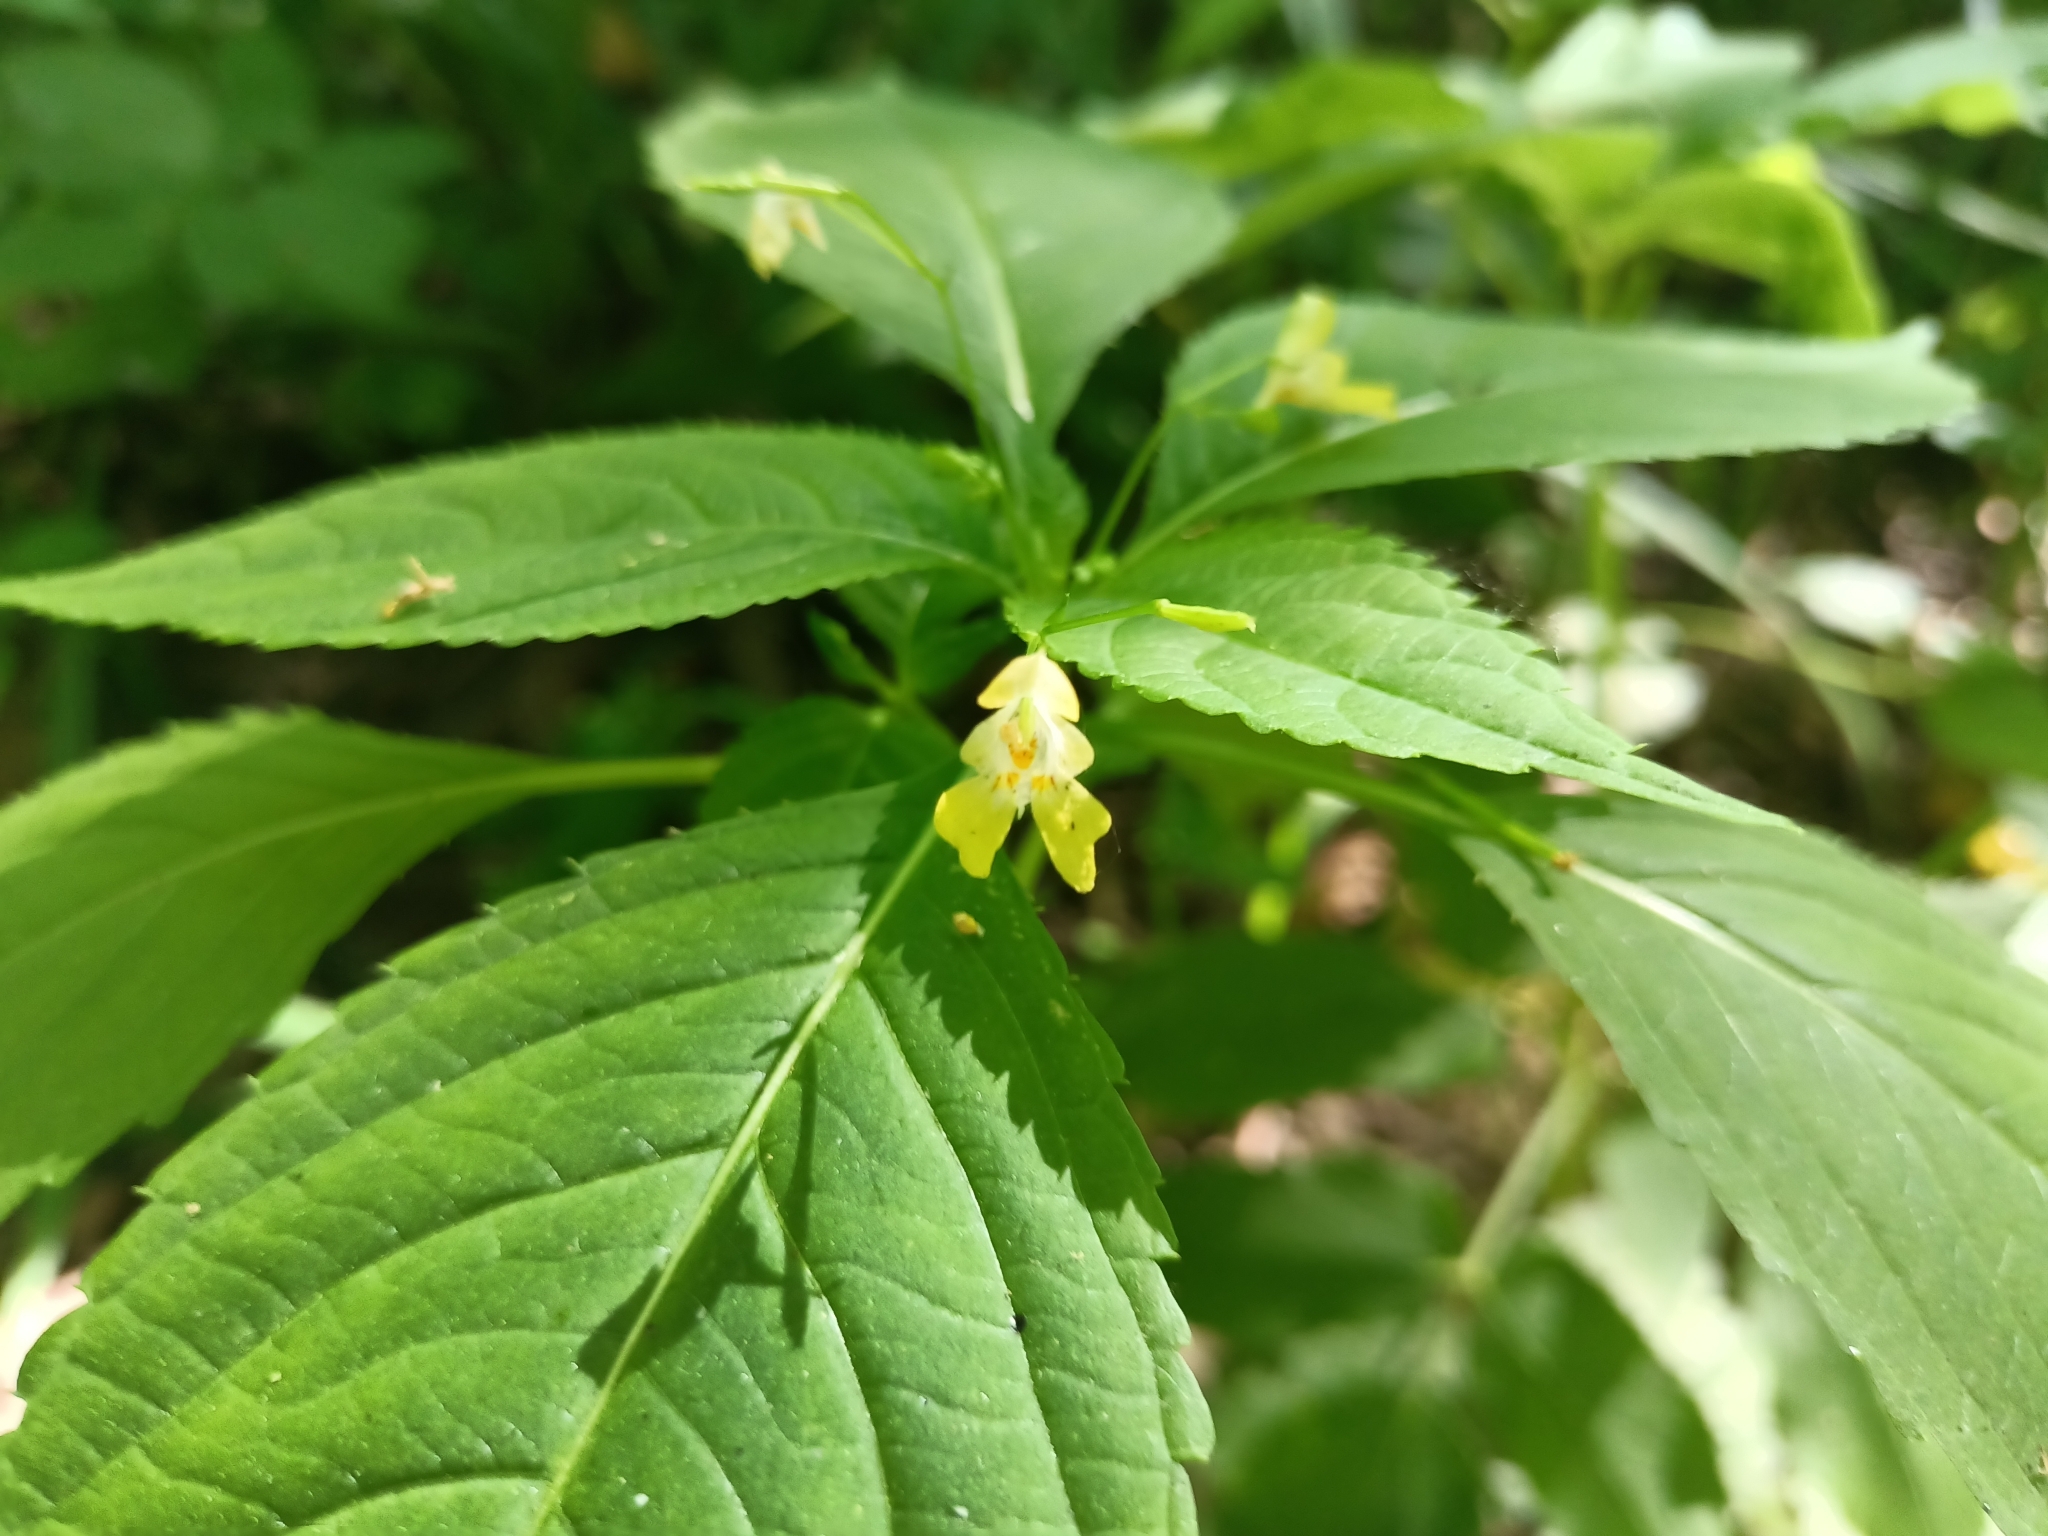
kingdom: Plantae
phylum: Tracheophyta
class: Magnoliopsida
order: Ericales
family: Balsaminaceae
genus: Impatiens
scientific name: Impatiens parviflora
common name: Small balsam
